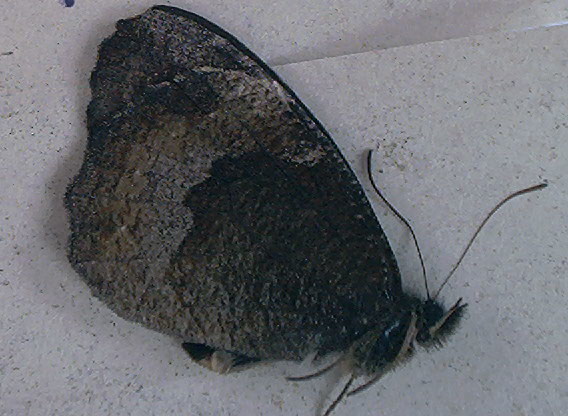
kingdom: Animalia
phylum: Arthropoda
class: Insecta
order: Lepidoptera
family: Nymphalidae
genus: Pedaliodes
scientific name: Pedaliodes porina
